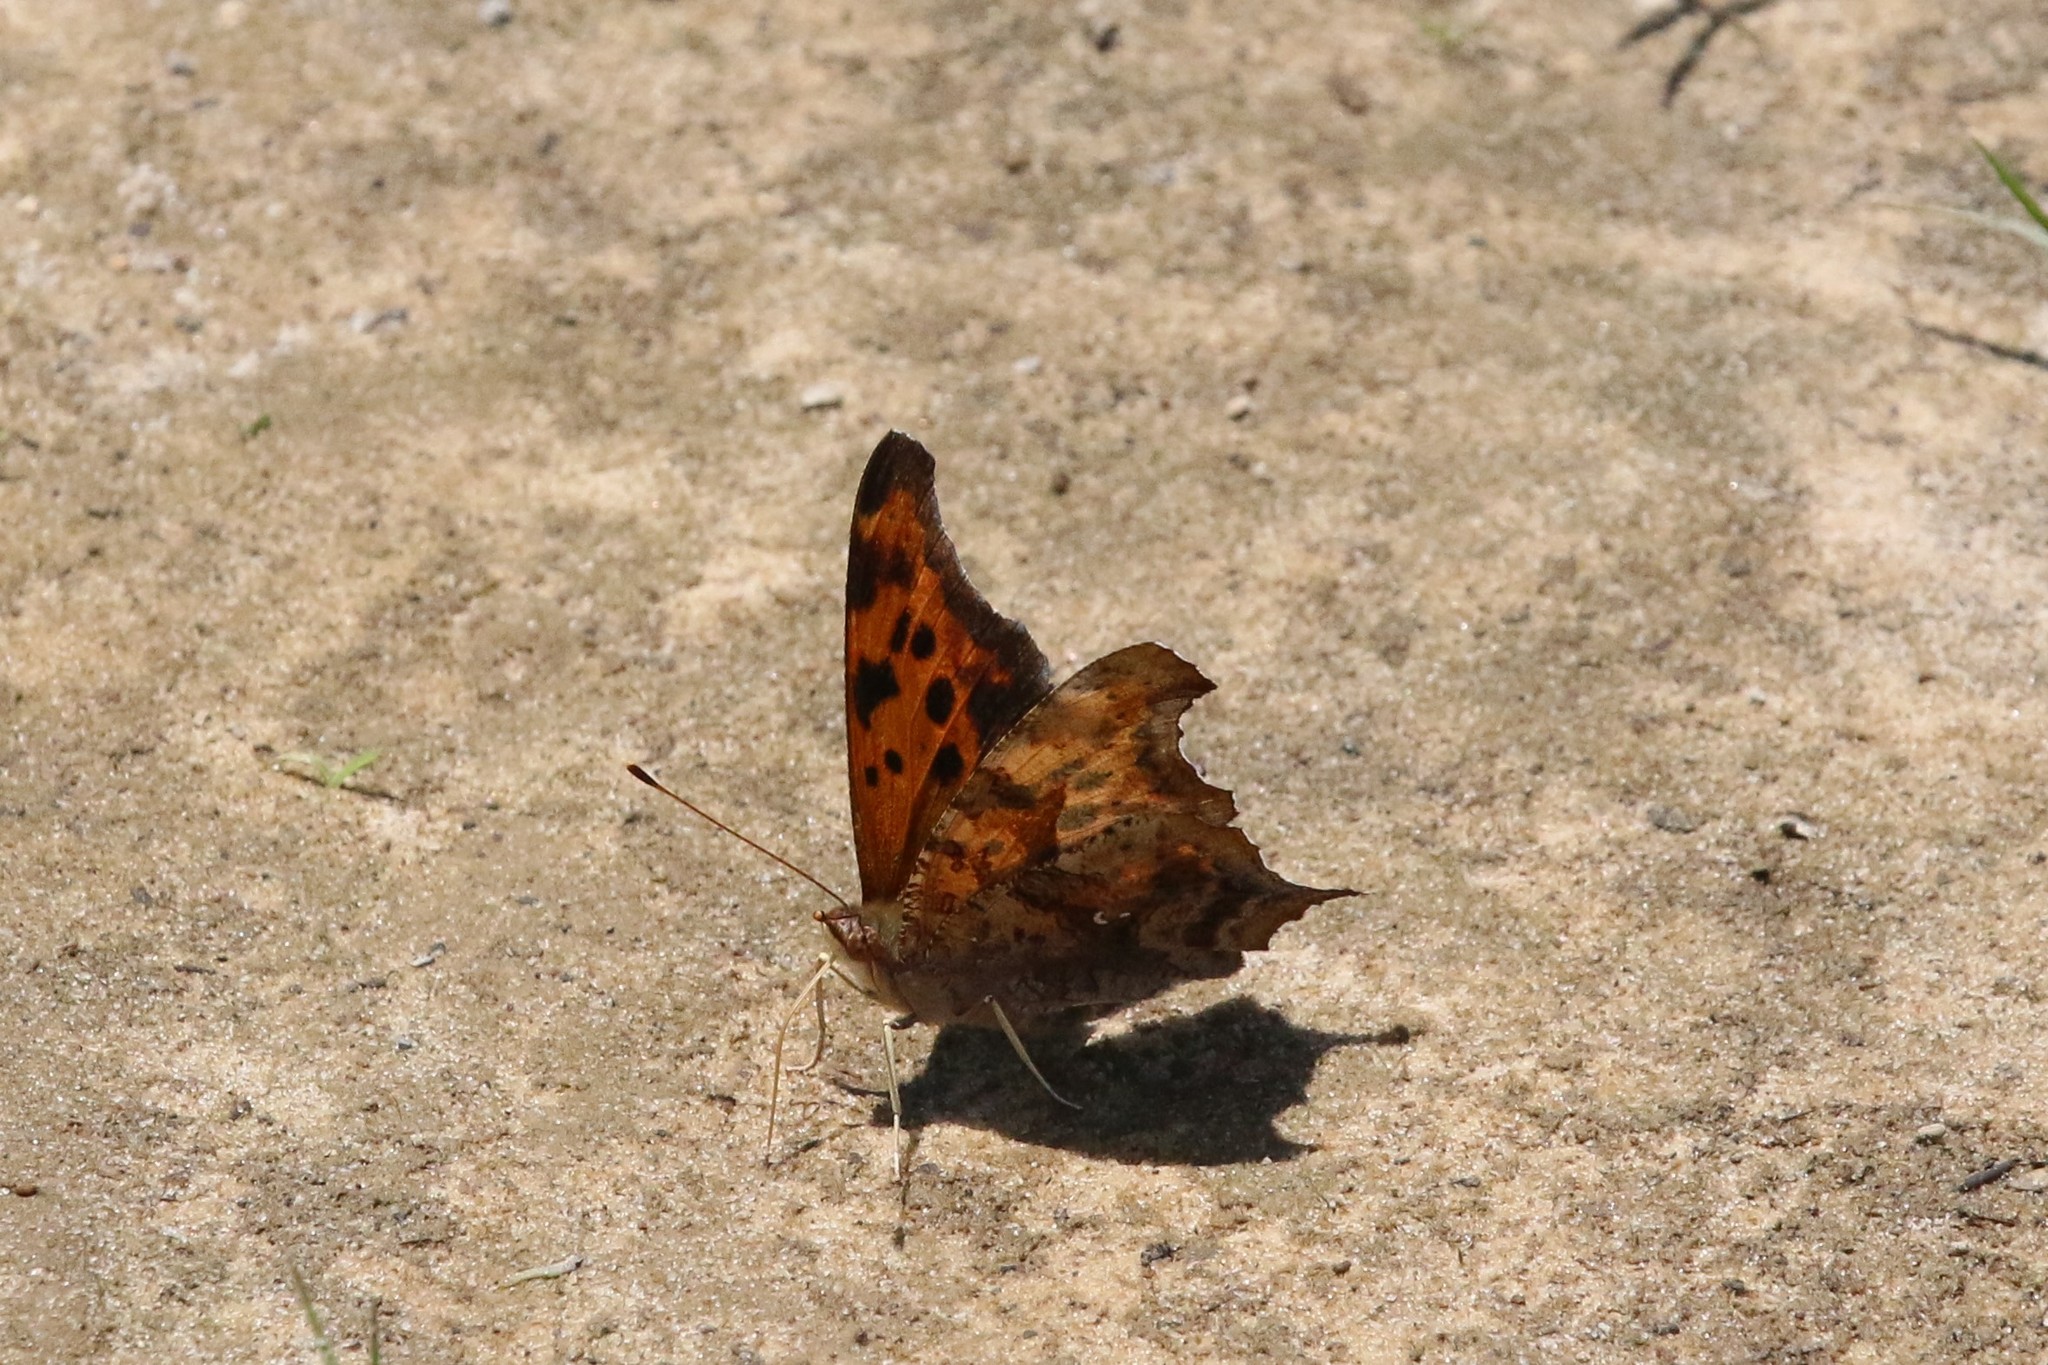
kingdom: Animalia
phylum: Arthropoda
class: Insecta
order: Lepidoptera
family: Nymphalidae
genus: Polygonia
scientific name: Polygonia interrogationis
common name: Question mark
